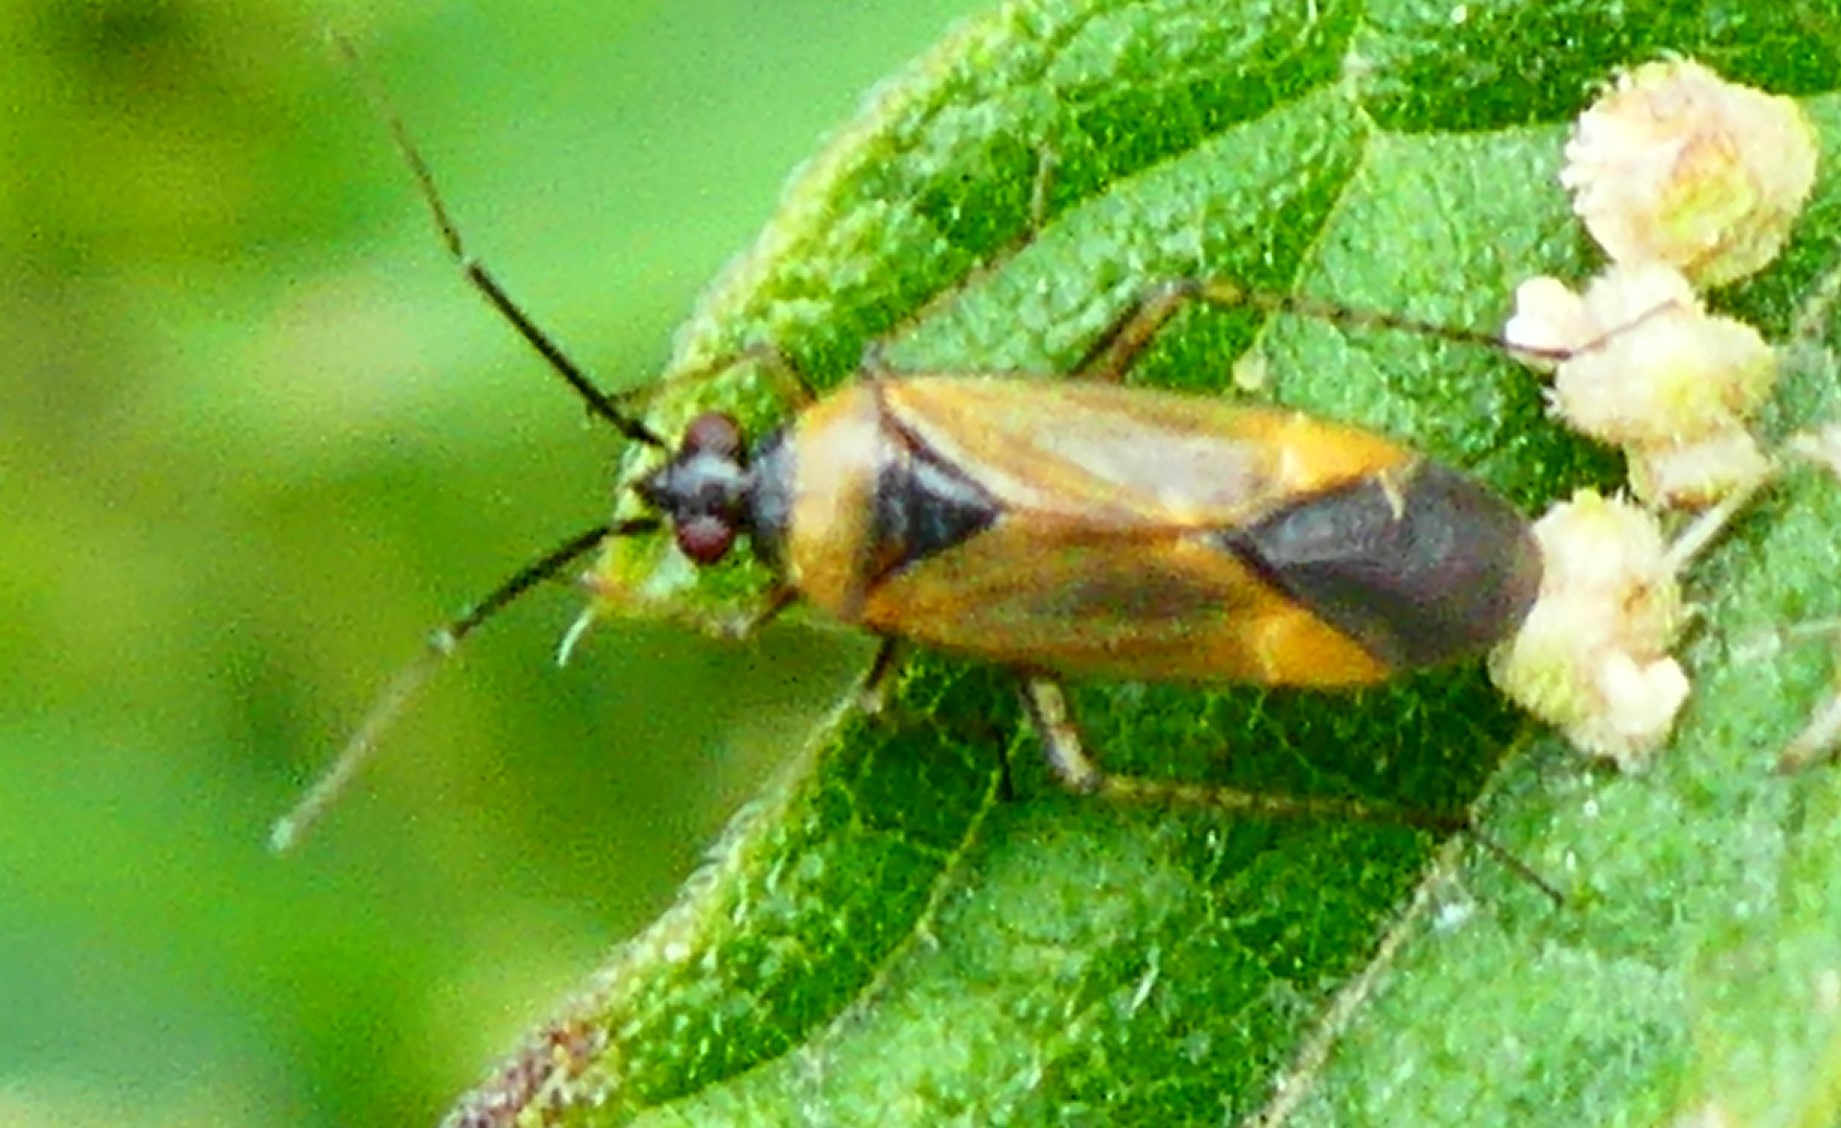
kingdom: Animalia
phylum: Arthropoda
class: Insecta
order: Hemiptera
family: Miridae
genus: Plagiognathus
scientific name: Plagiognathus arbustorum
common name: Plant bug
